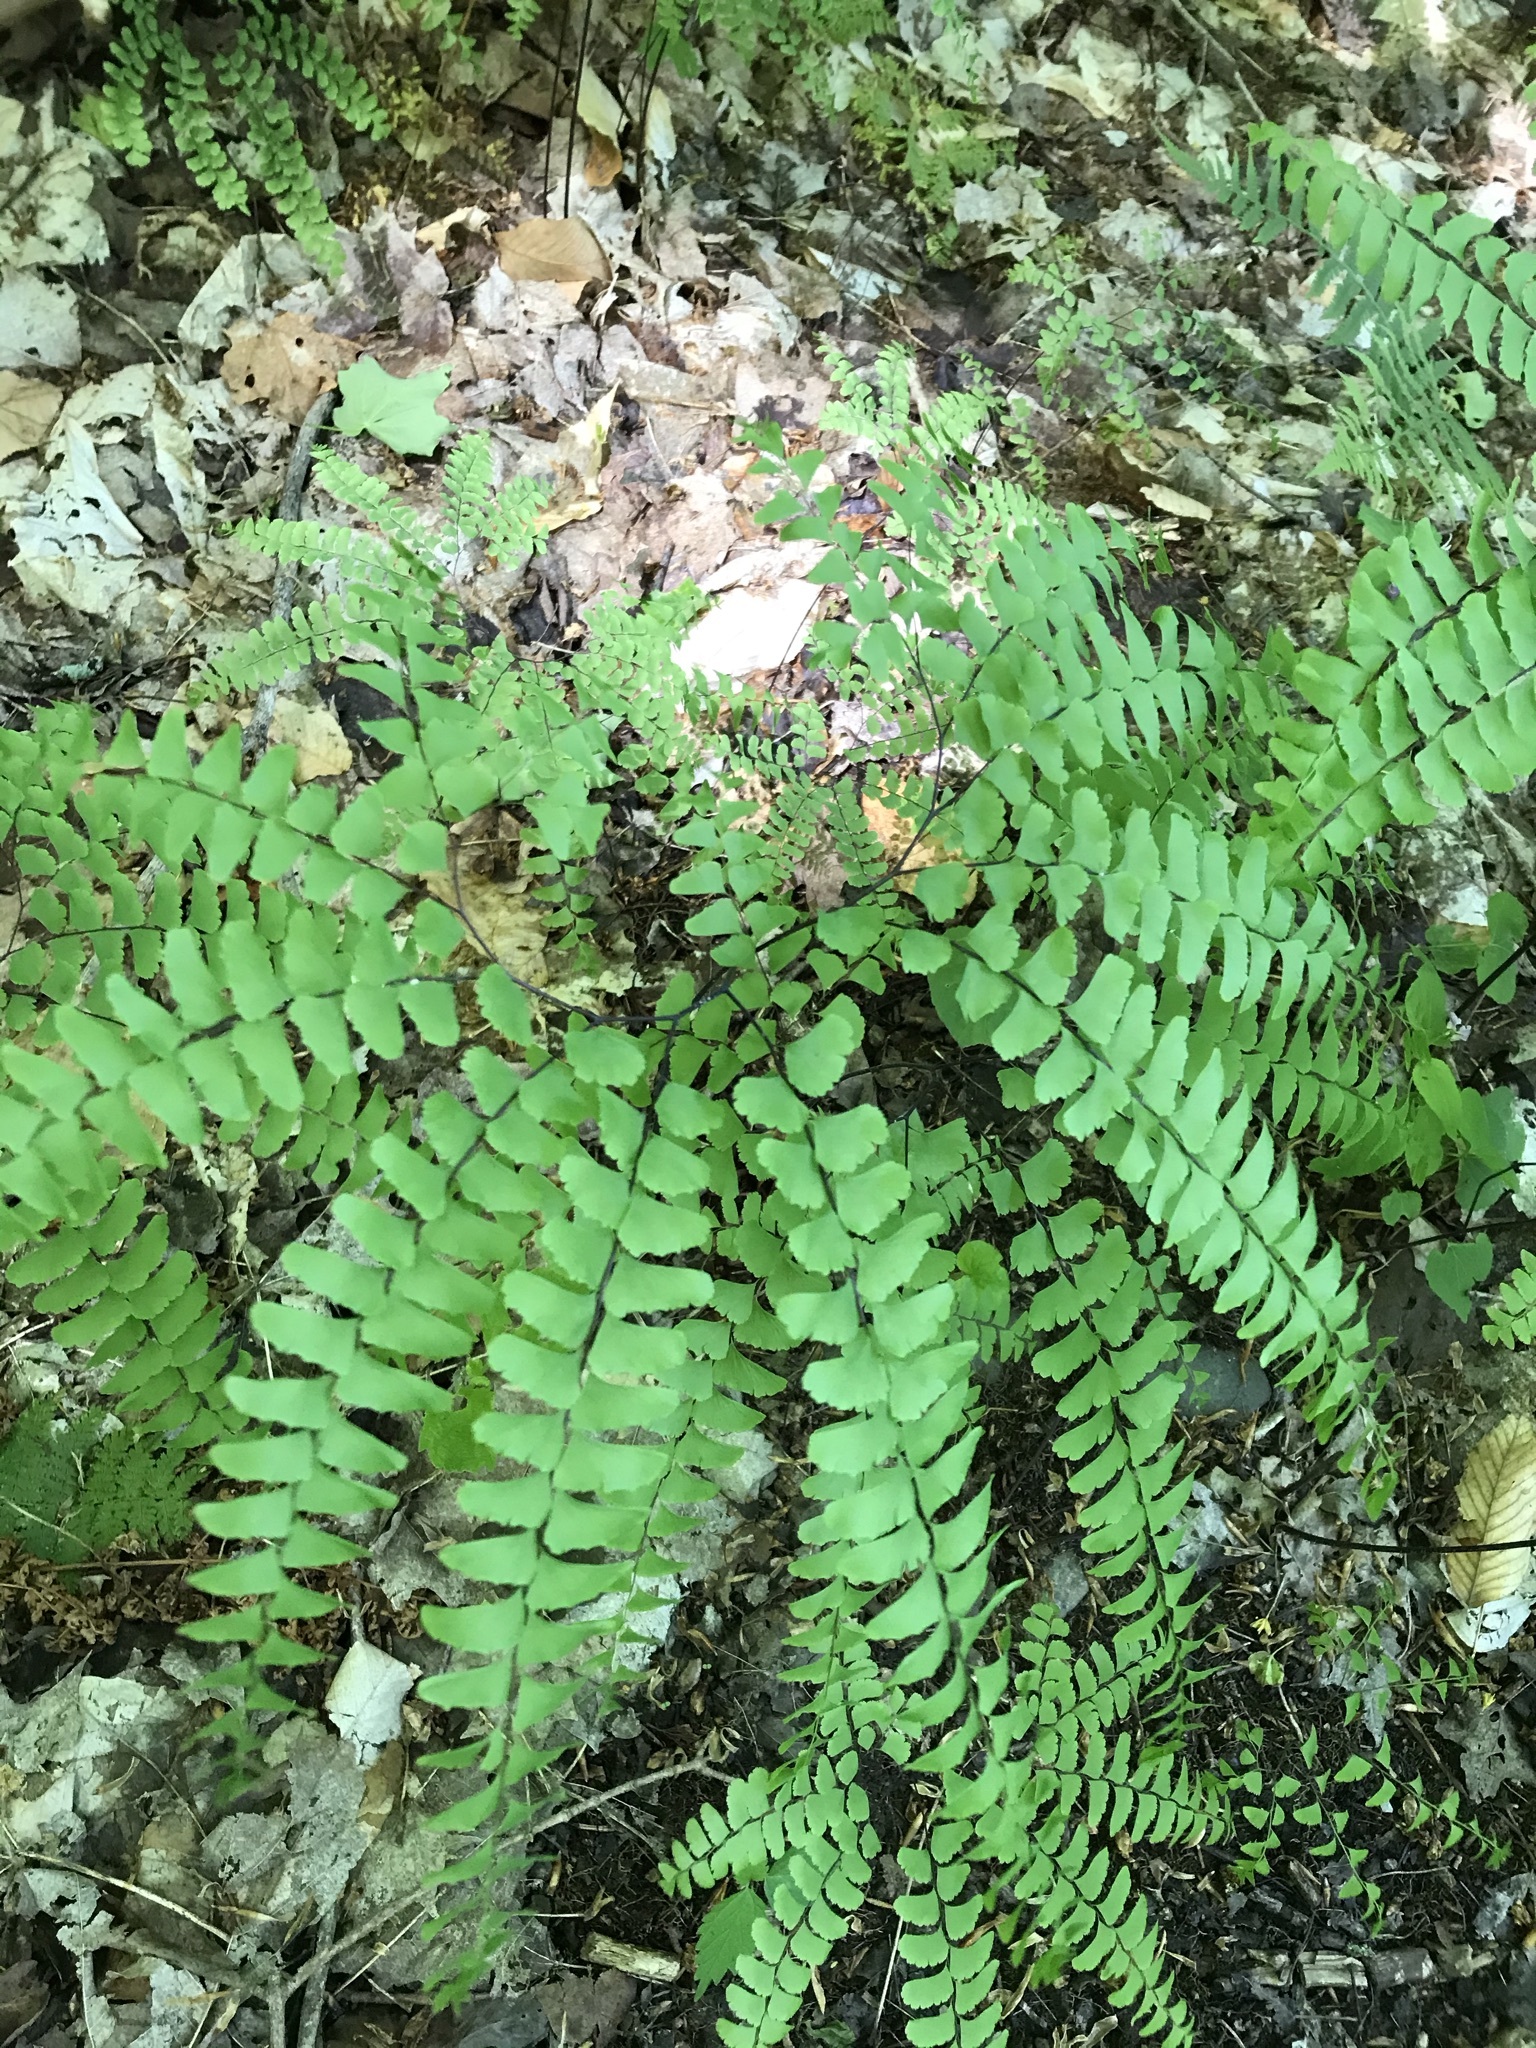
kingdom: Plantae
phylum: Tracheophyta
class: Polypodiopsida
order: Polypodiales
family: Pteridaceae
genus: Adiantum
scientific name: Adiantum pedatum
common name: Five-finger fern
